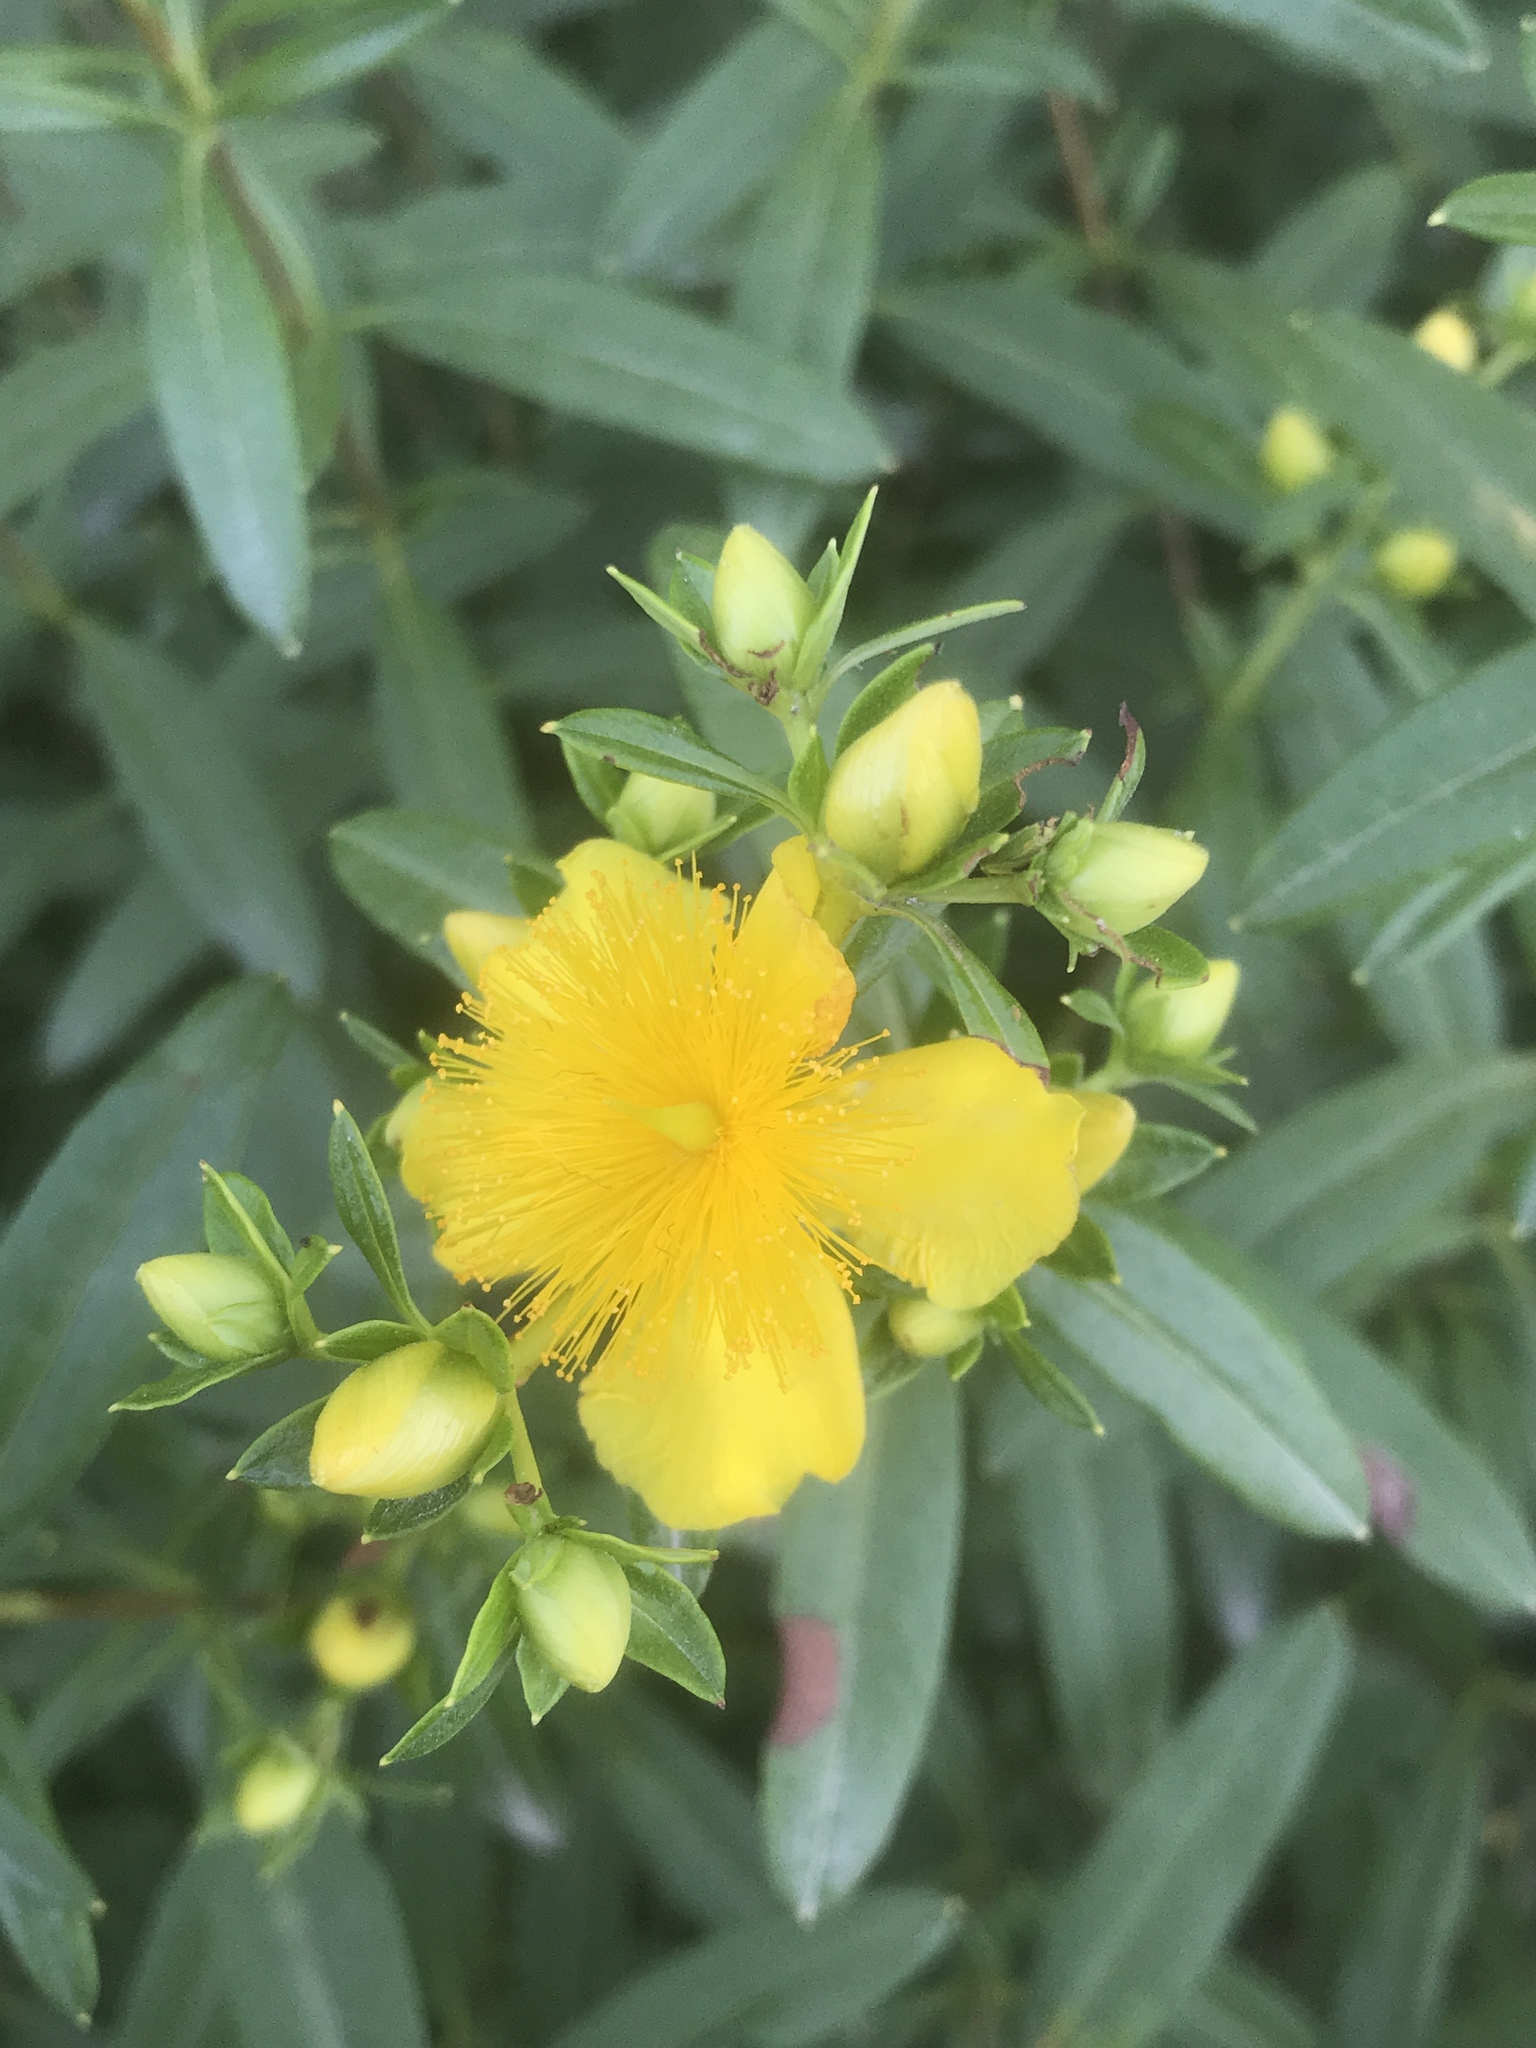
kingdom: Plantae
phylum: Tracheophyta
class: Magnoliopsida
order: Malpighiales
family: Hypericaceae
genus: Hypericum
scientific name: Hypericum prolificum
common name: Shrubby st. john's-wort
